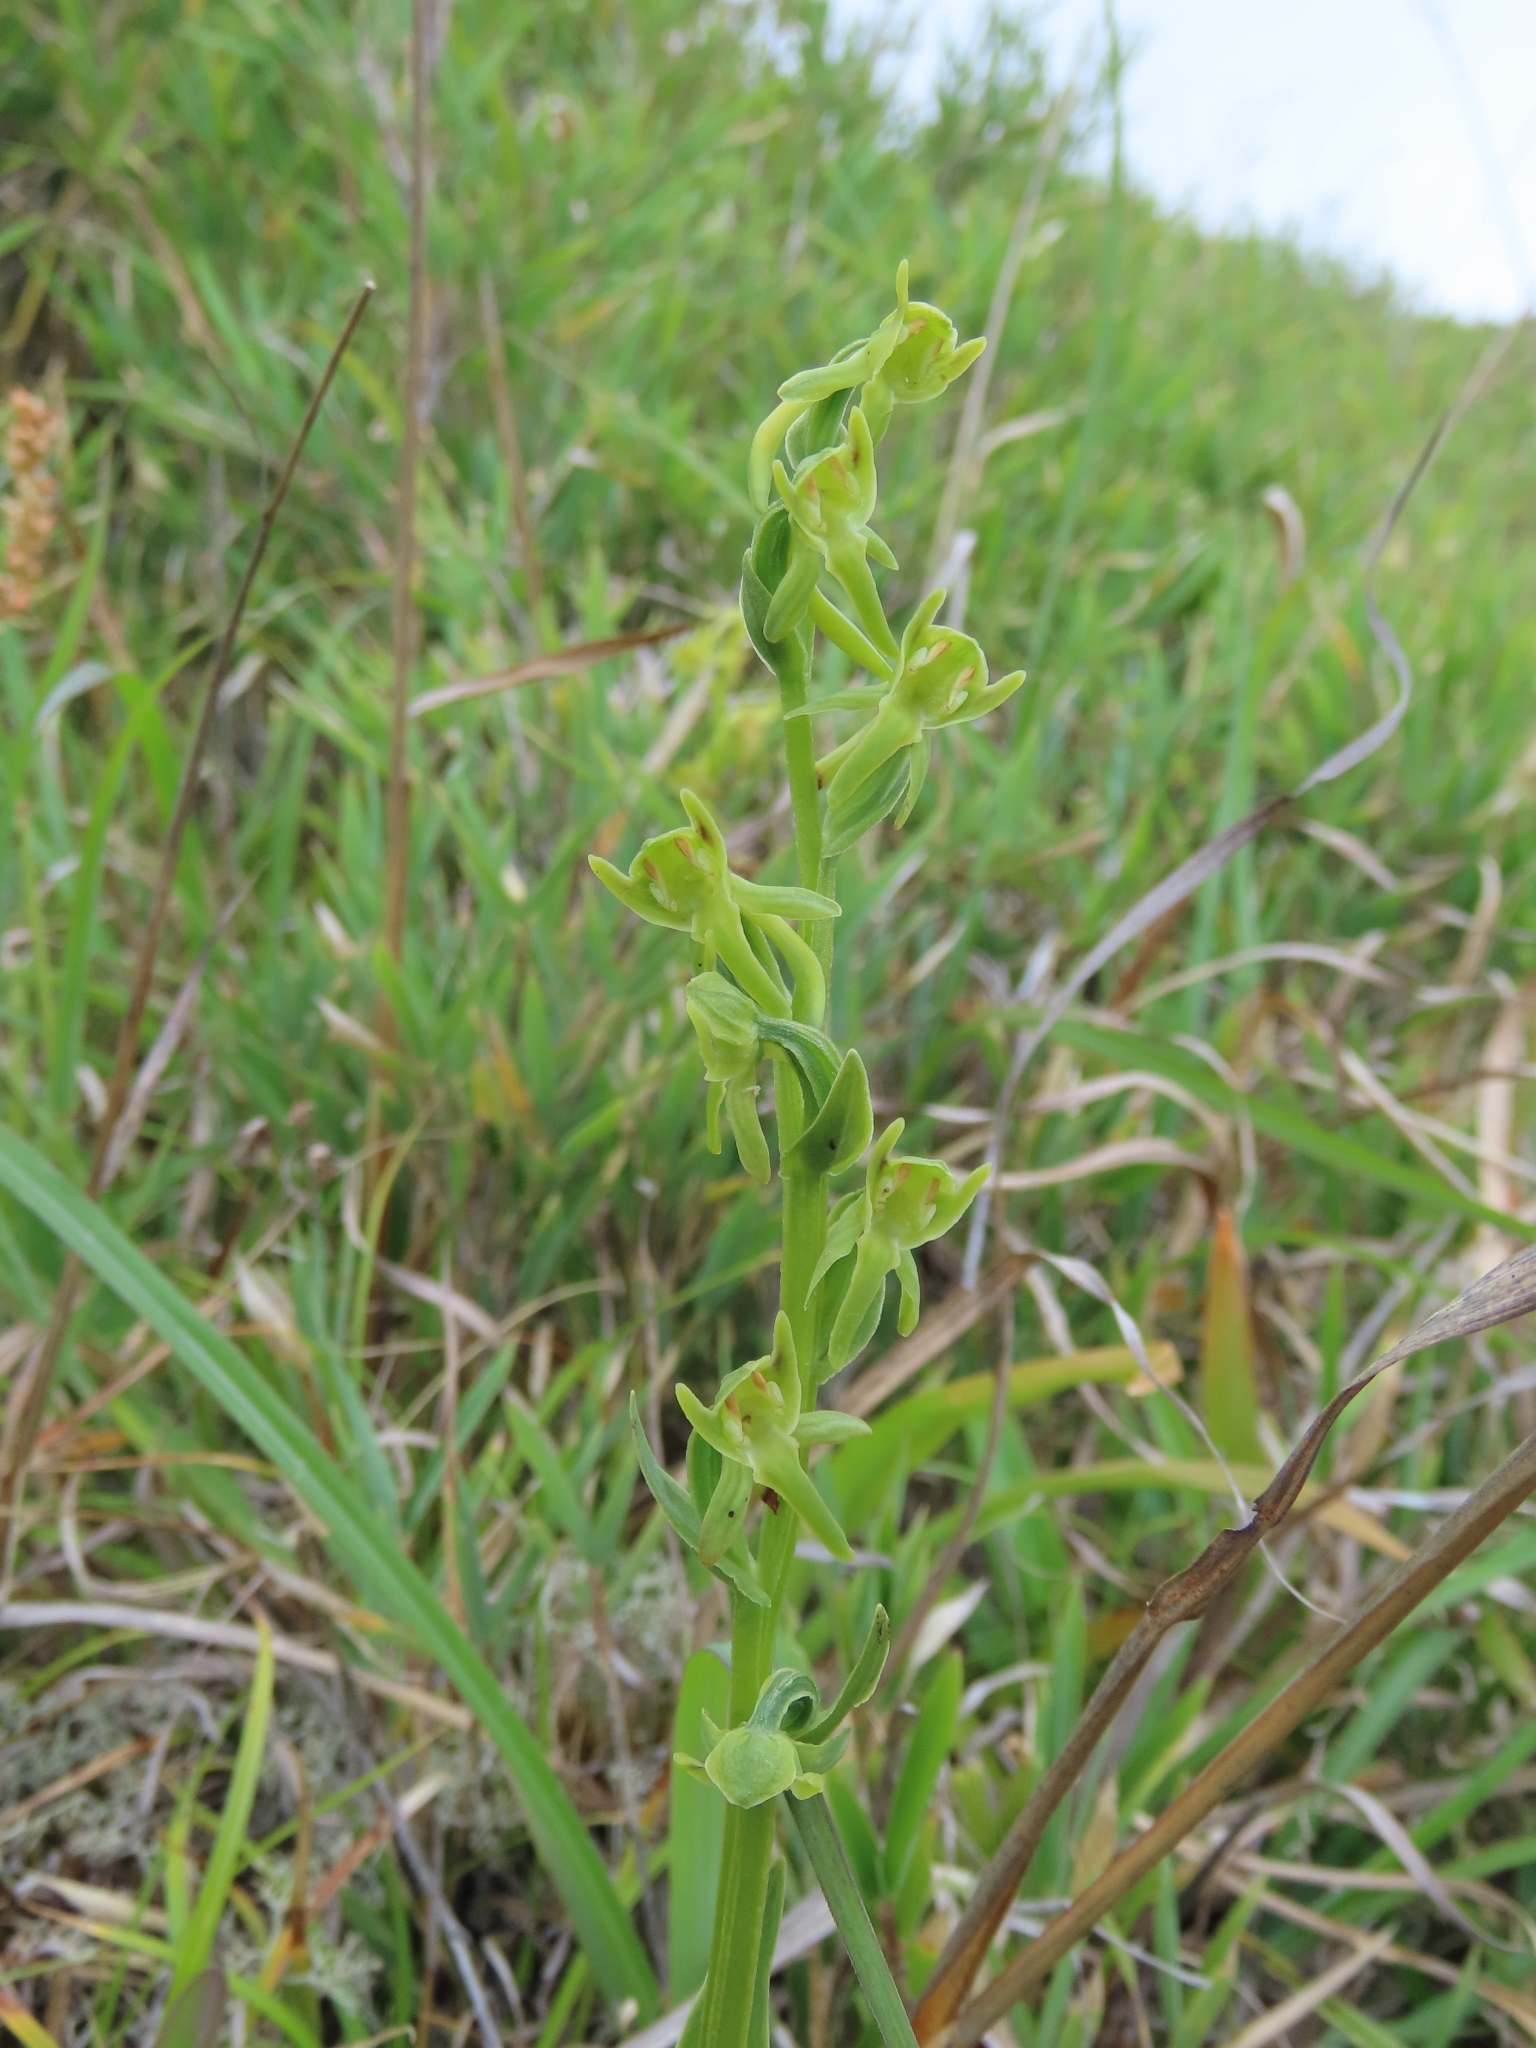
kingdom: Plantae
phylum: Tracheophyta
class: Liliopsida
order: Asparagales
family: Orchidaceae
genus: Platanthera
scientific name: Platanthera pachyglossa
